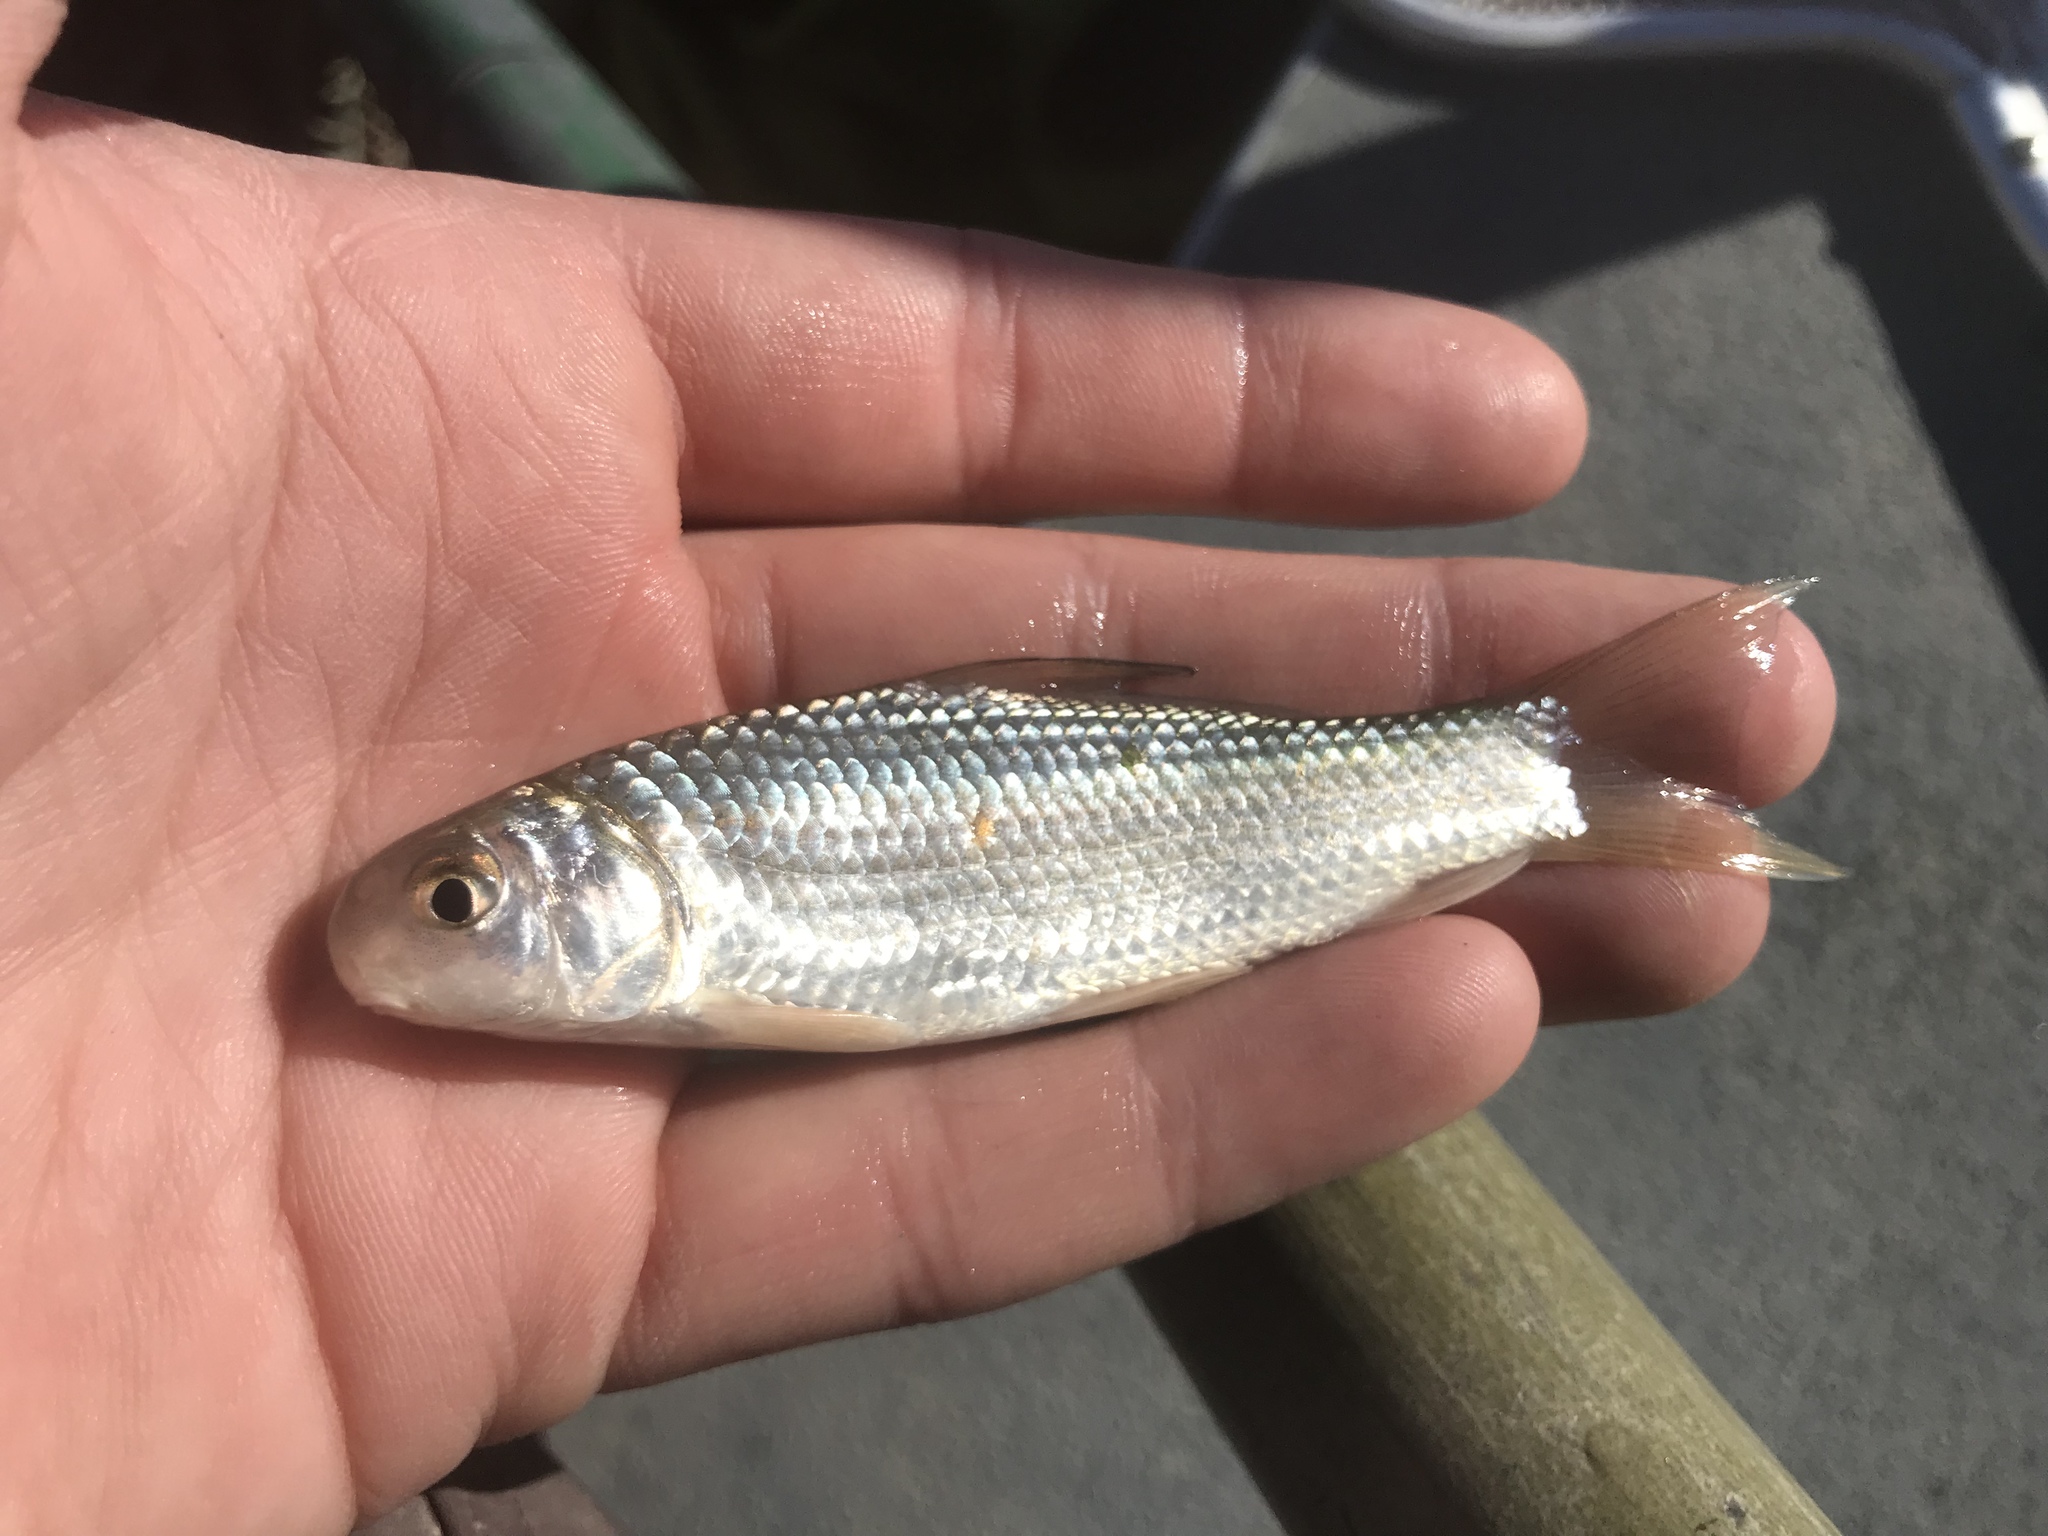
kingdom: Animalia
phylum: Chordata
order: Cypriniformes
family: Catostomidae
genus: Carpiodes
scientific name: Carpiodes carpio
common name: River carpsucker
